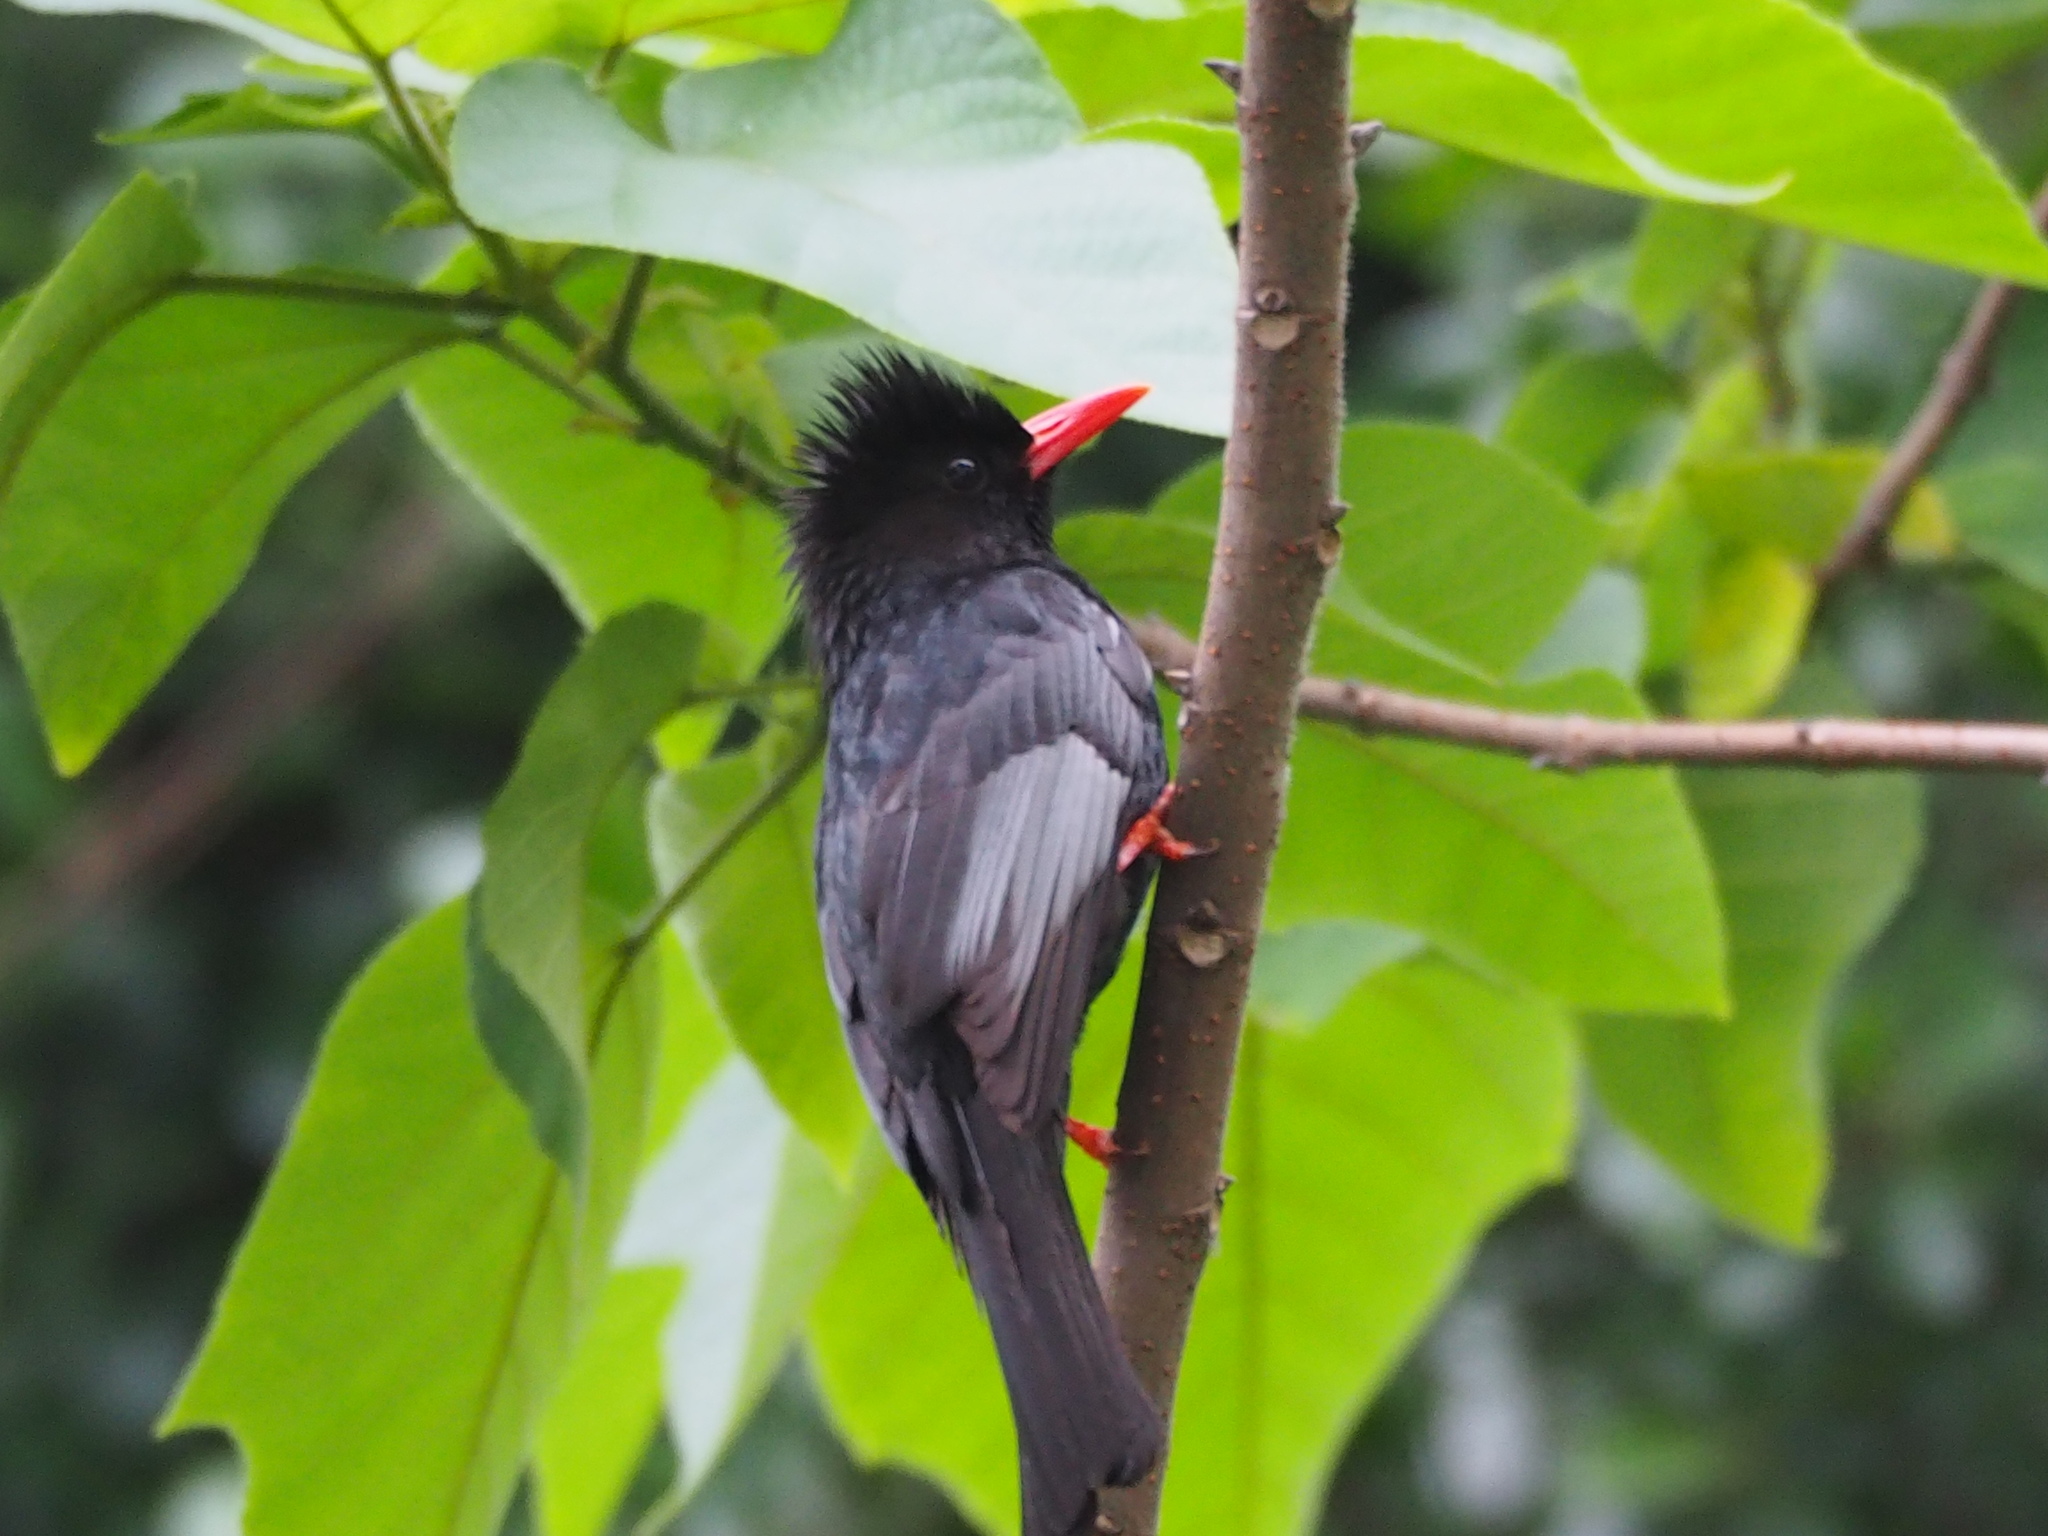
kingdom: Animalia
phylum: Chordata
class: Aves
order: Passeriformes
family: Pycnonotidae
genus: Hypsipetes
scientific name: Hypsipetes leucocephalus
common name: Black bulbul
